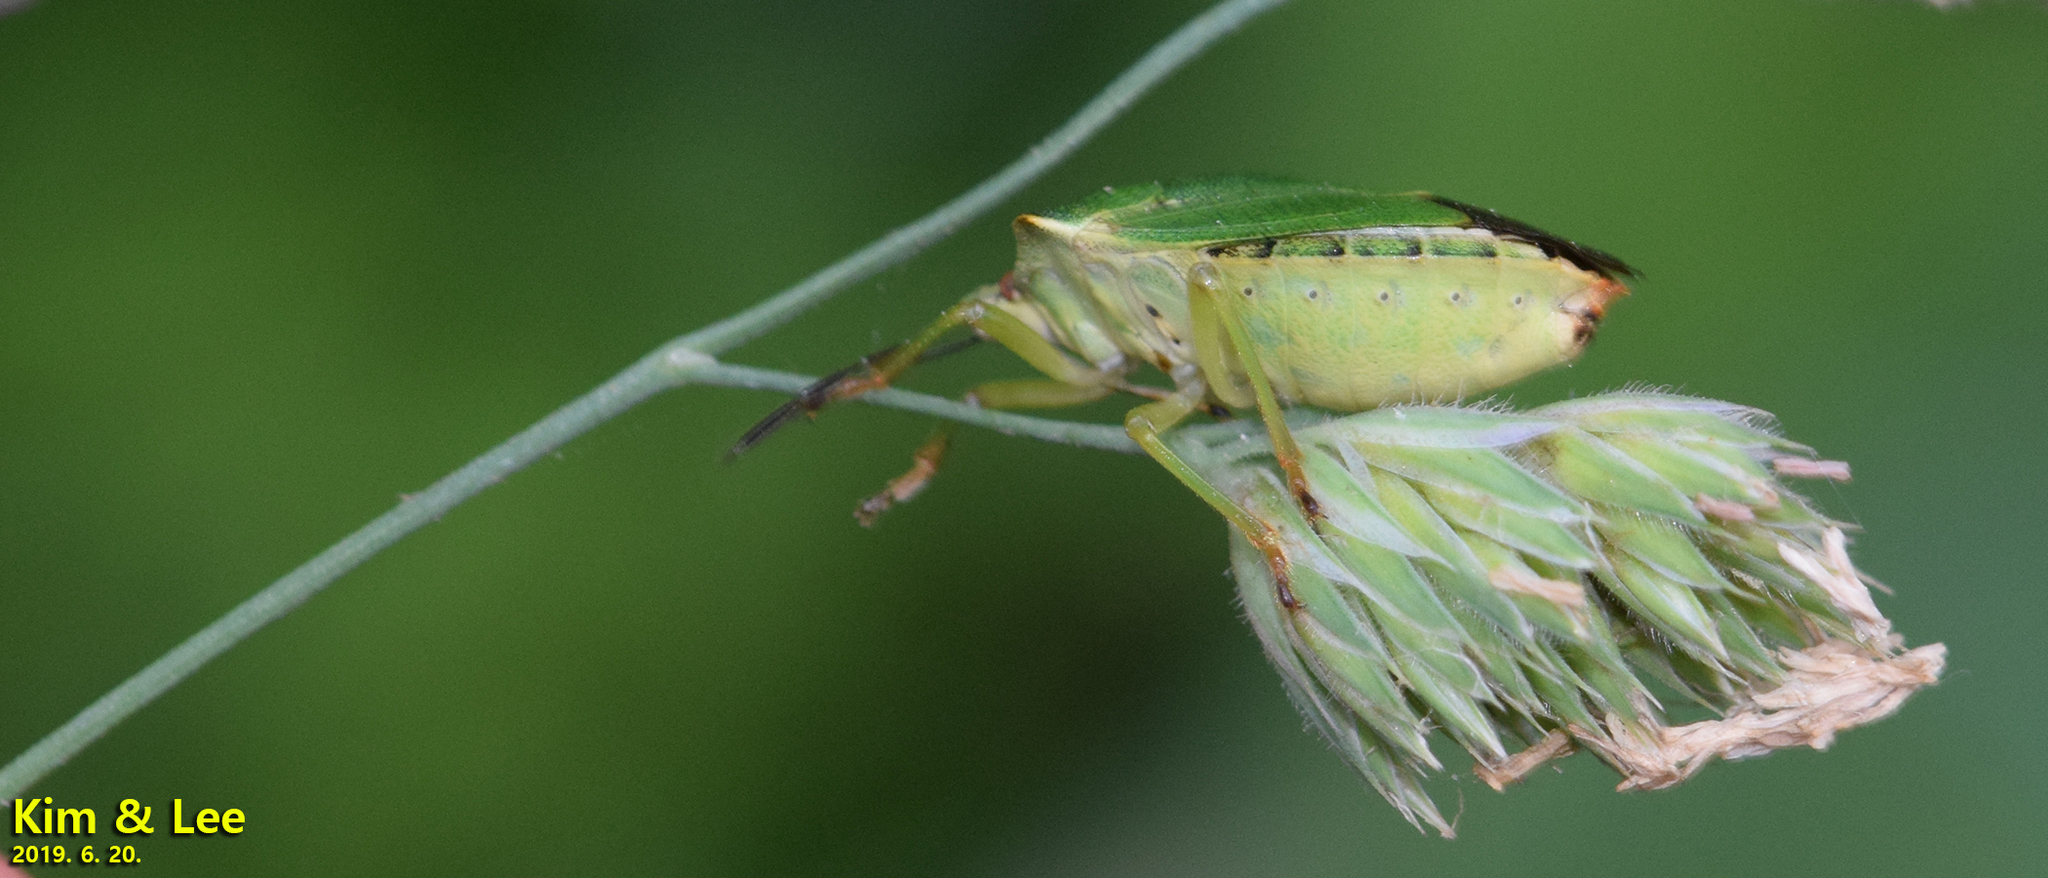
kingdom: Animalia
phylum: Arthropoda
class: Insecta
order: Hemiptera
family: Pentatomidae
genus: Palomena
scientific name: Palomena
